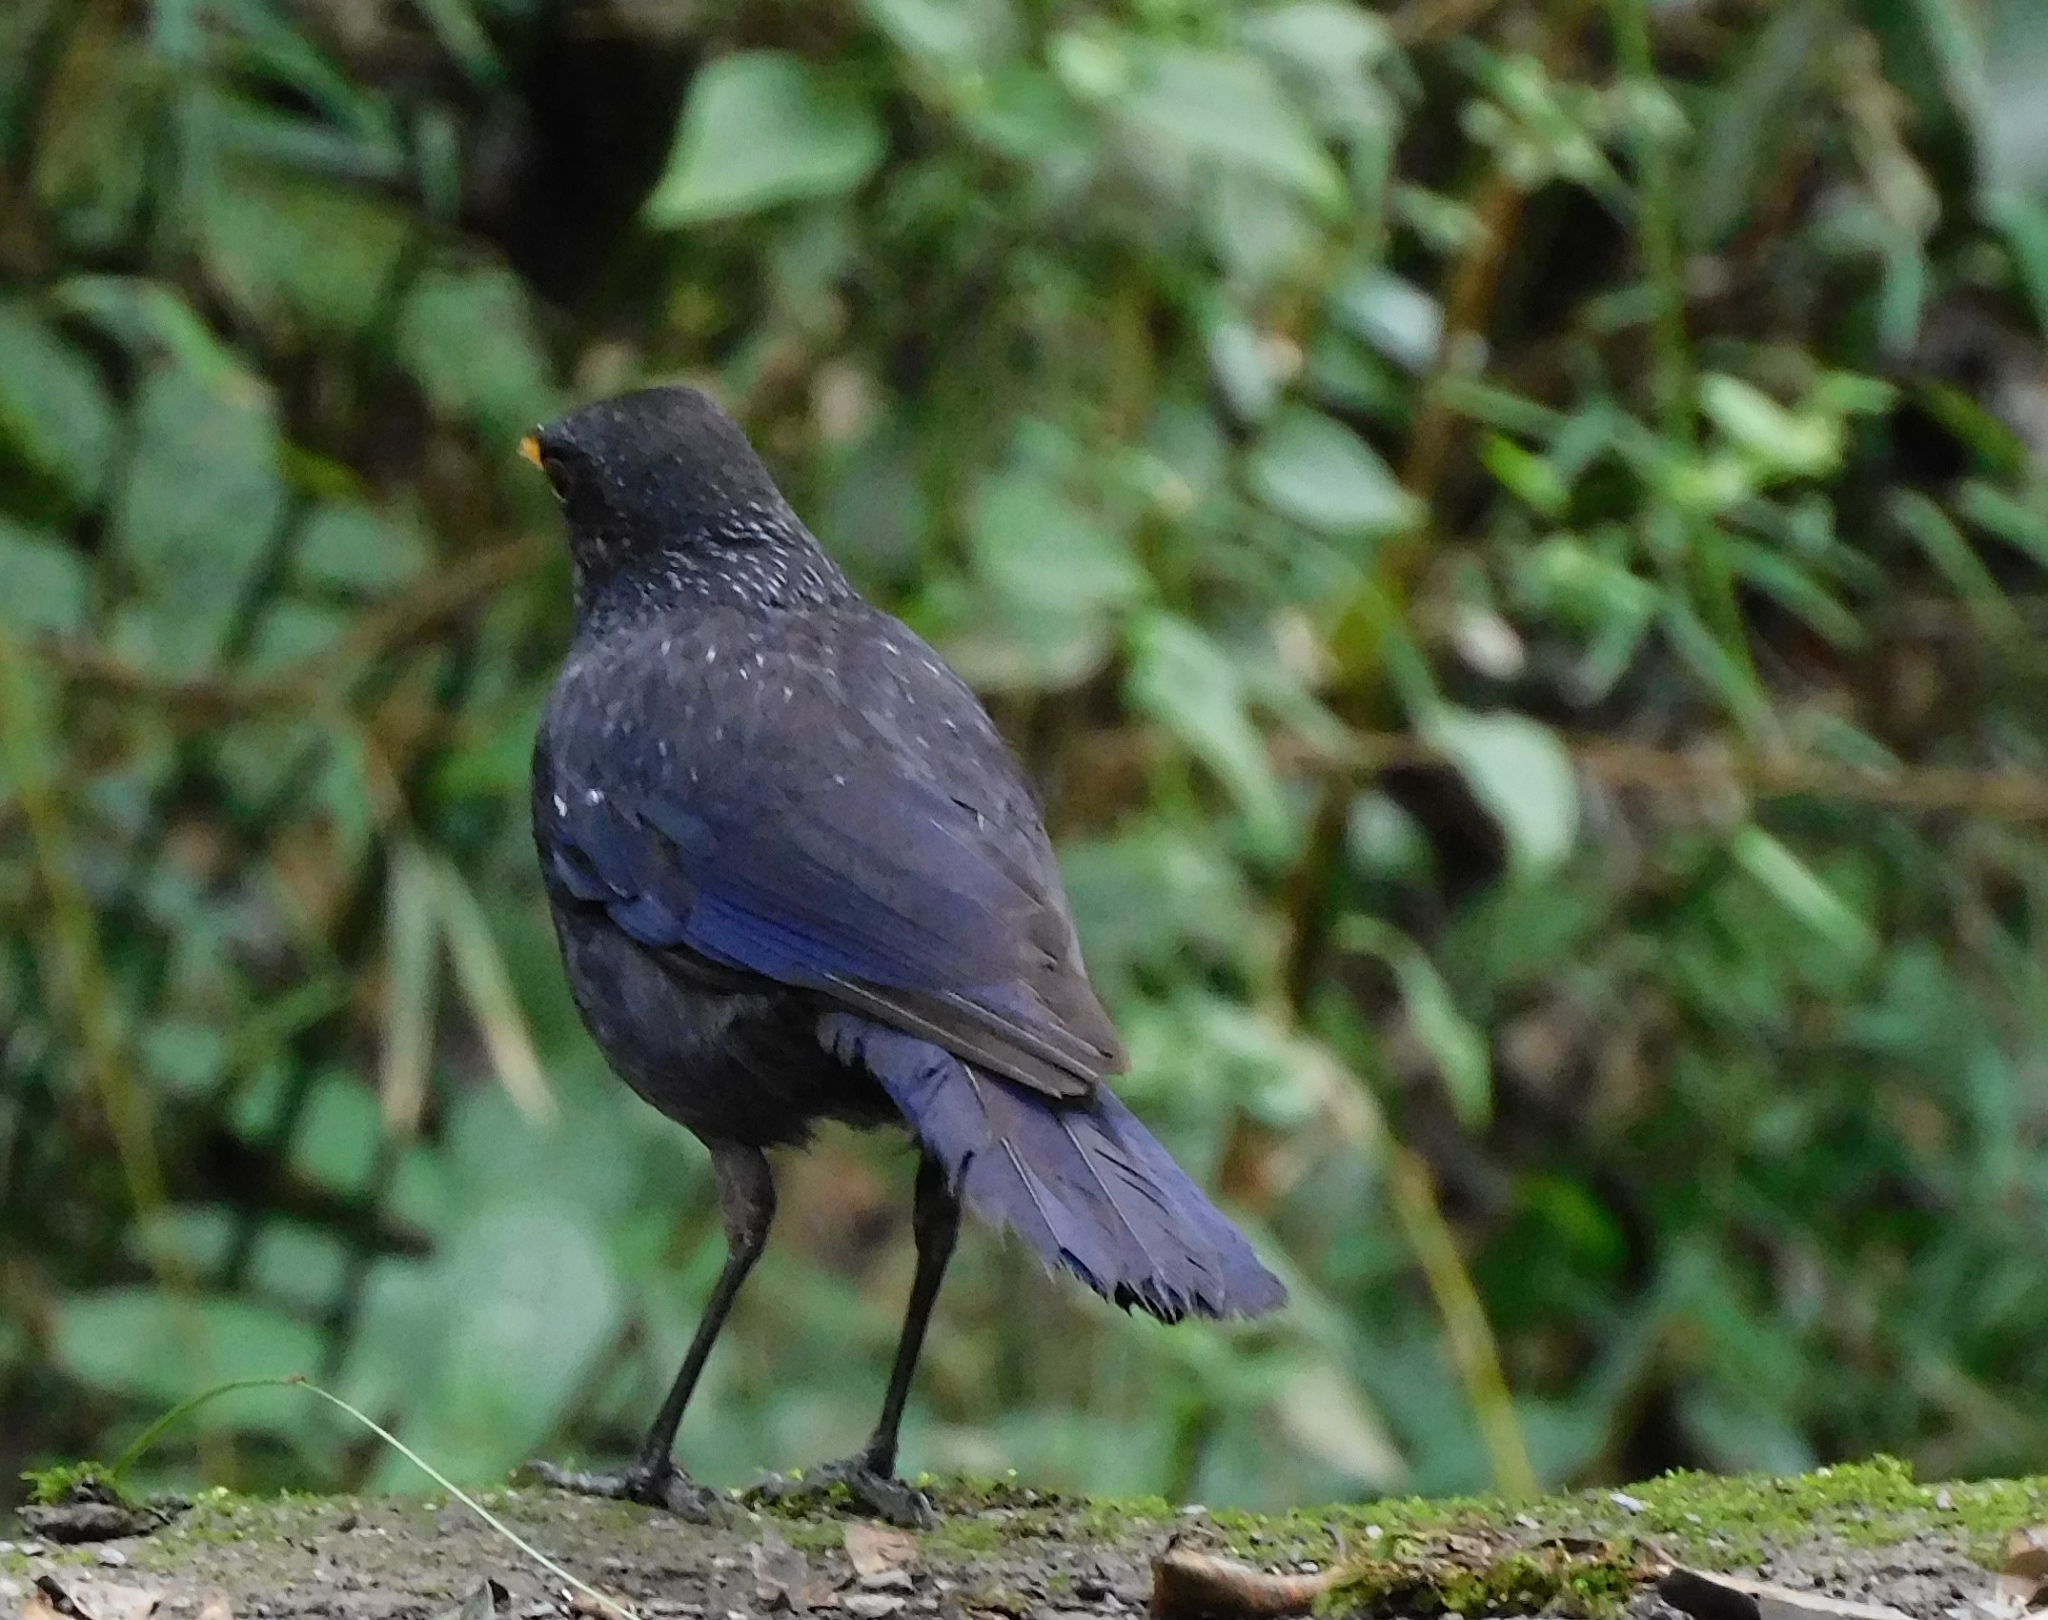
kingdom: Animalia
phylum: Chordata
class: Aves
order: Passeriformes
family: Muscicapidae
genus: Myophonus
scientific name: Myophonus caeruleus
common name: Blue whistling-thrush
